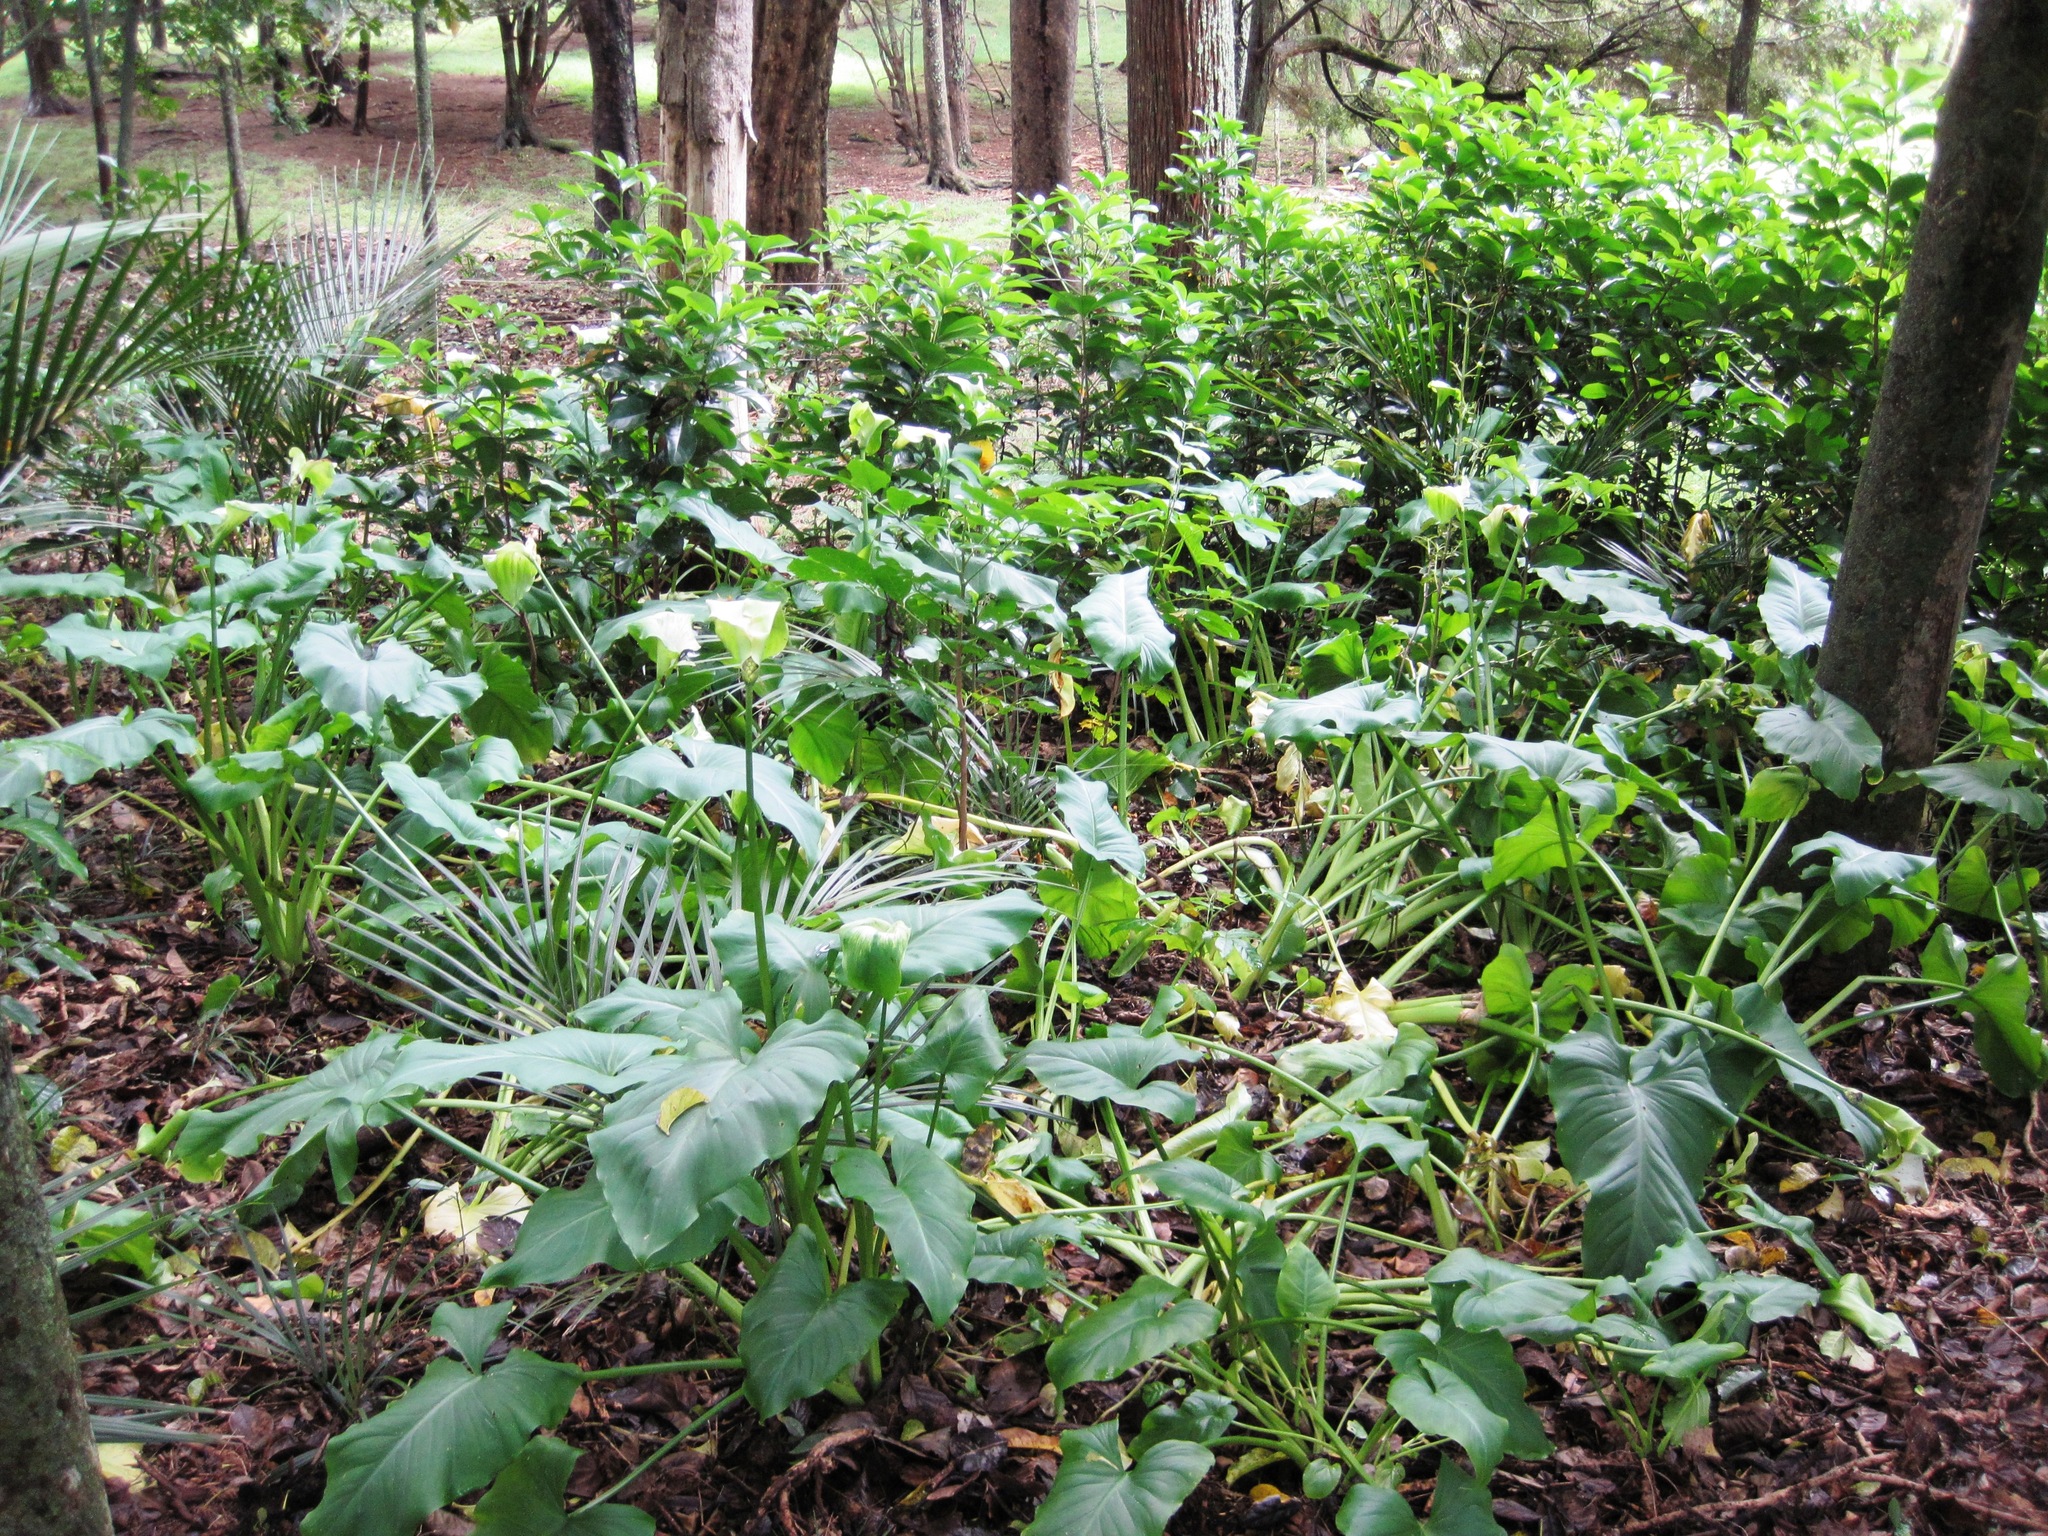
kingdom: Plantae
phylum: Tracheophyta
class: Liliopsida
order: Alismatales
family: Araceae
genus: Zantedeschia
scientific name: Zantedeschia aethiopica
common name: Altar-lily
